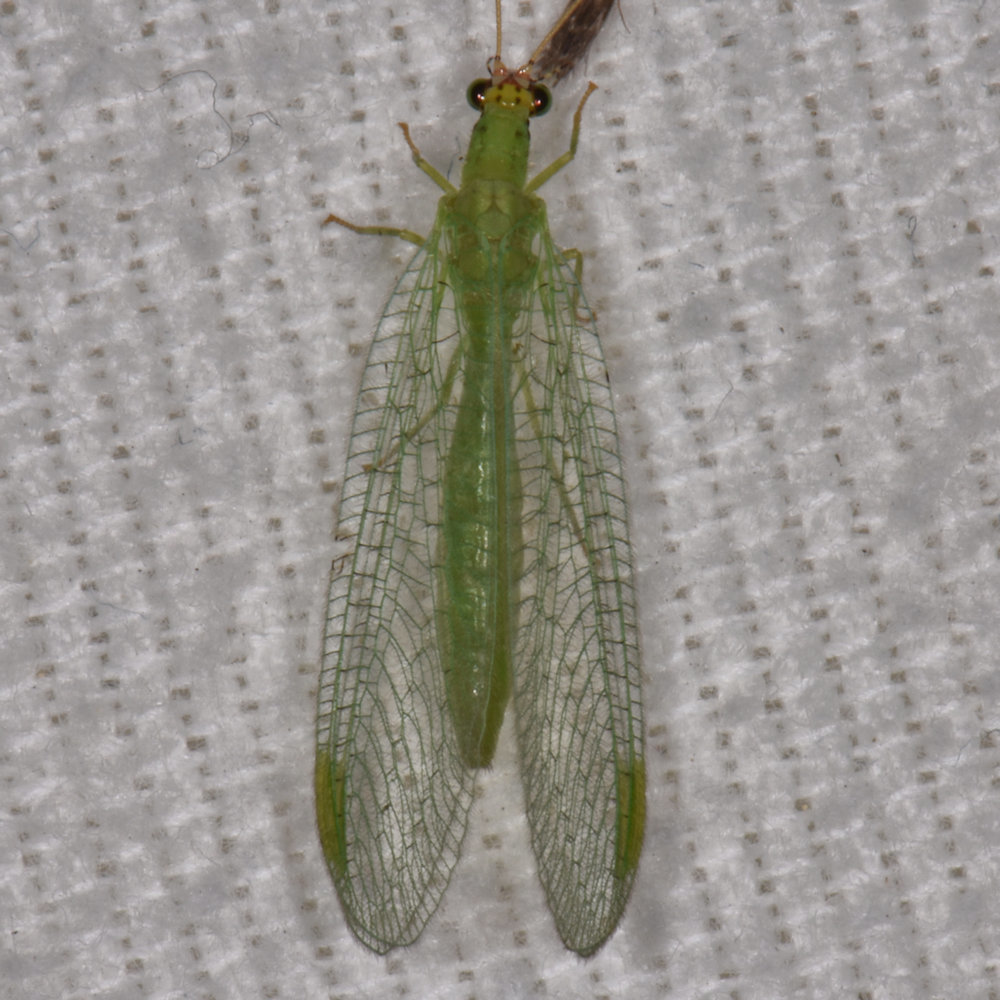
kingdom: Animalia
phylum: Arthropoda
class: Insecta
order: Neuroptera
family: Chrysopidae
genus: Chrysopa
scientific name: Chrysopa oculata
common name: Golden-eyed lacewing
